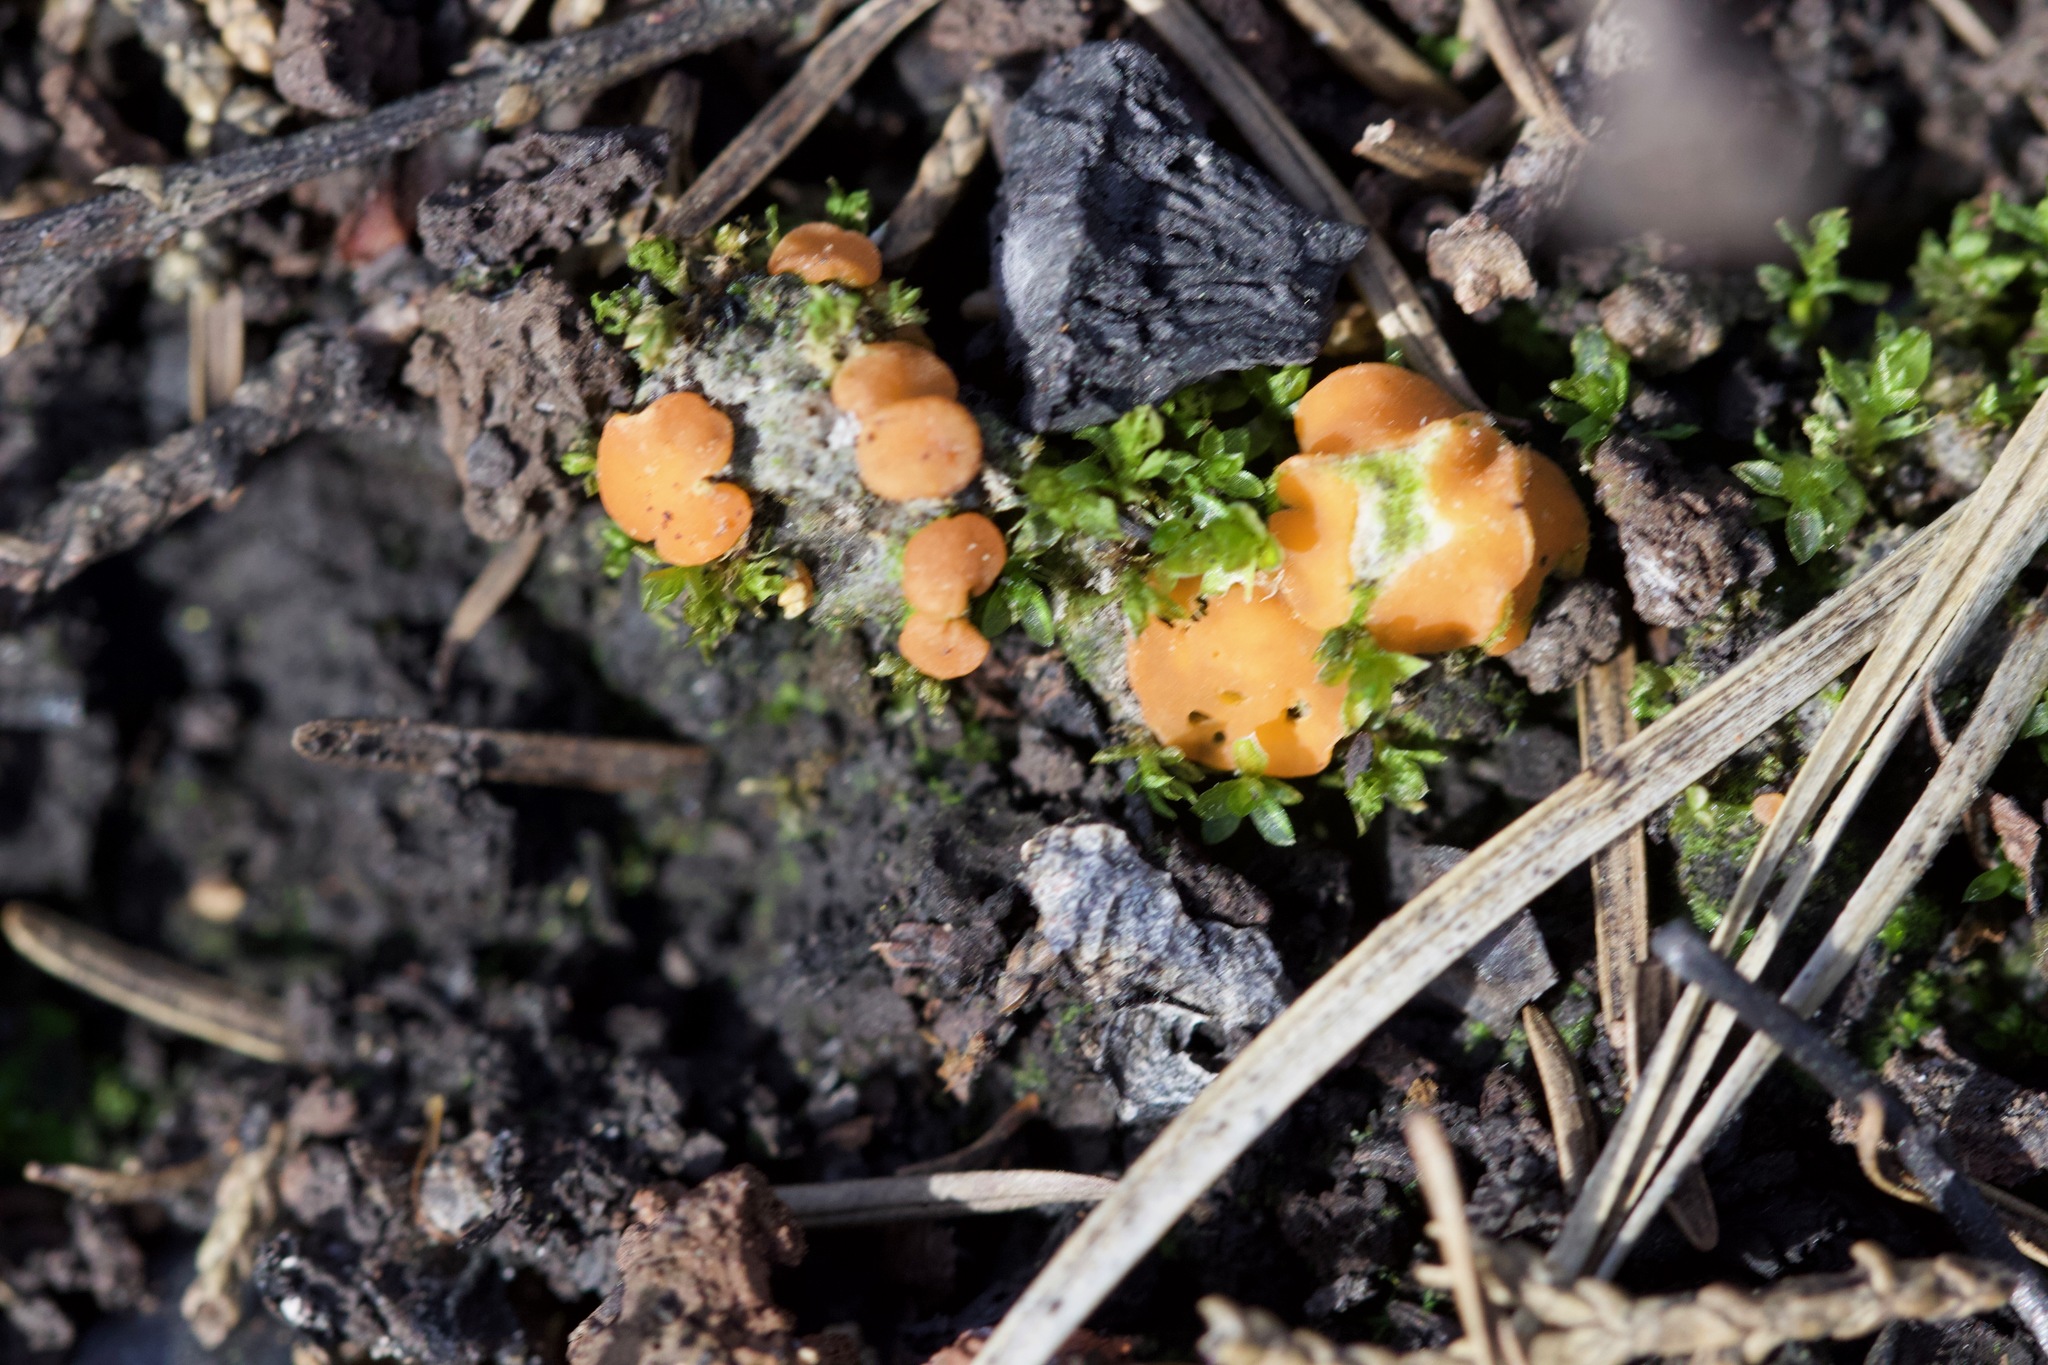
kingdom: Fungi
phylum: Ascomycota
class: Pezizomycetes
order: Pezizales
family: Pyronemataceae
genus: Anthracobia
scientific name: Anthracobia melaloma
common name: Charcoal eyelash
